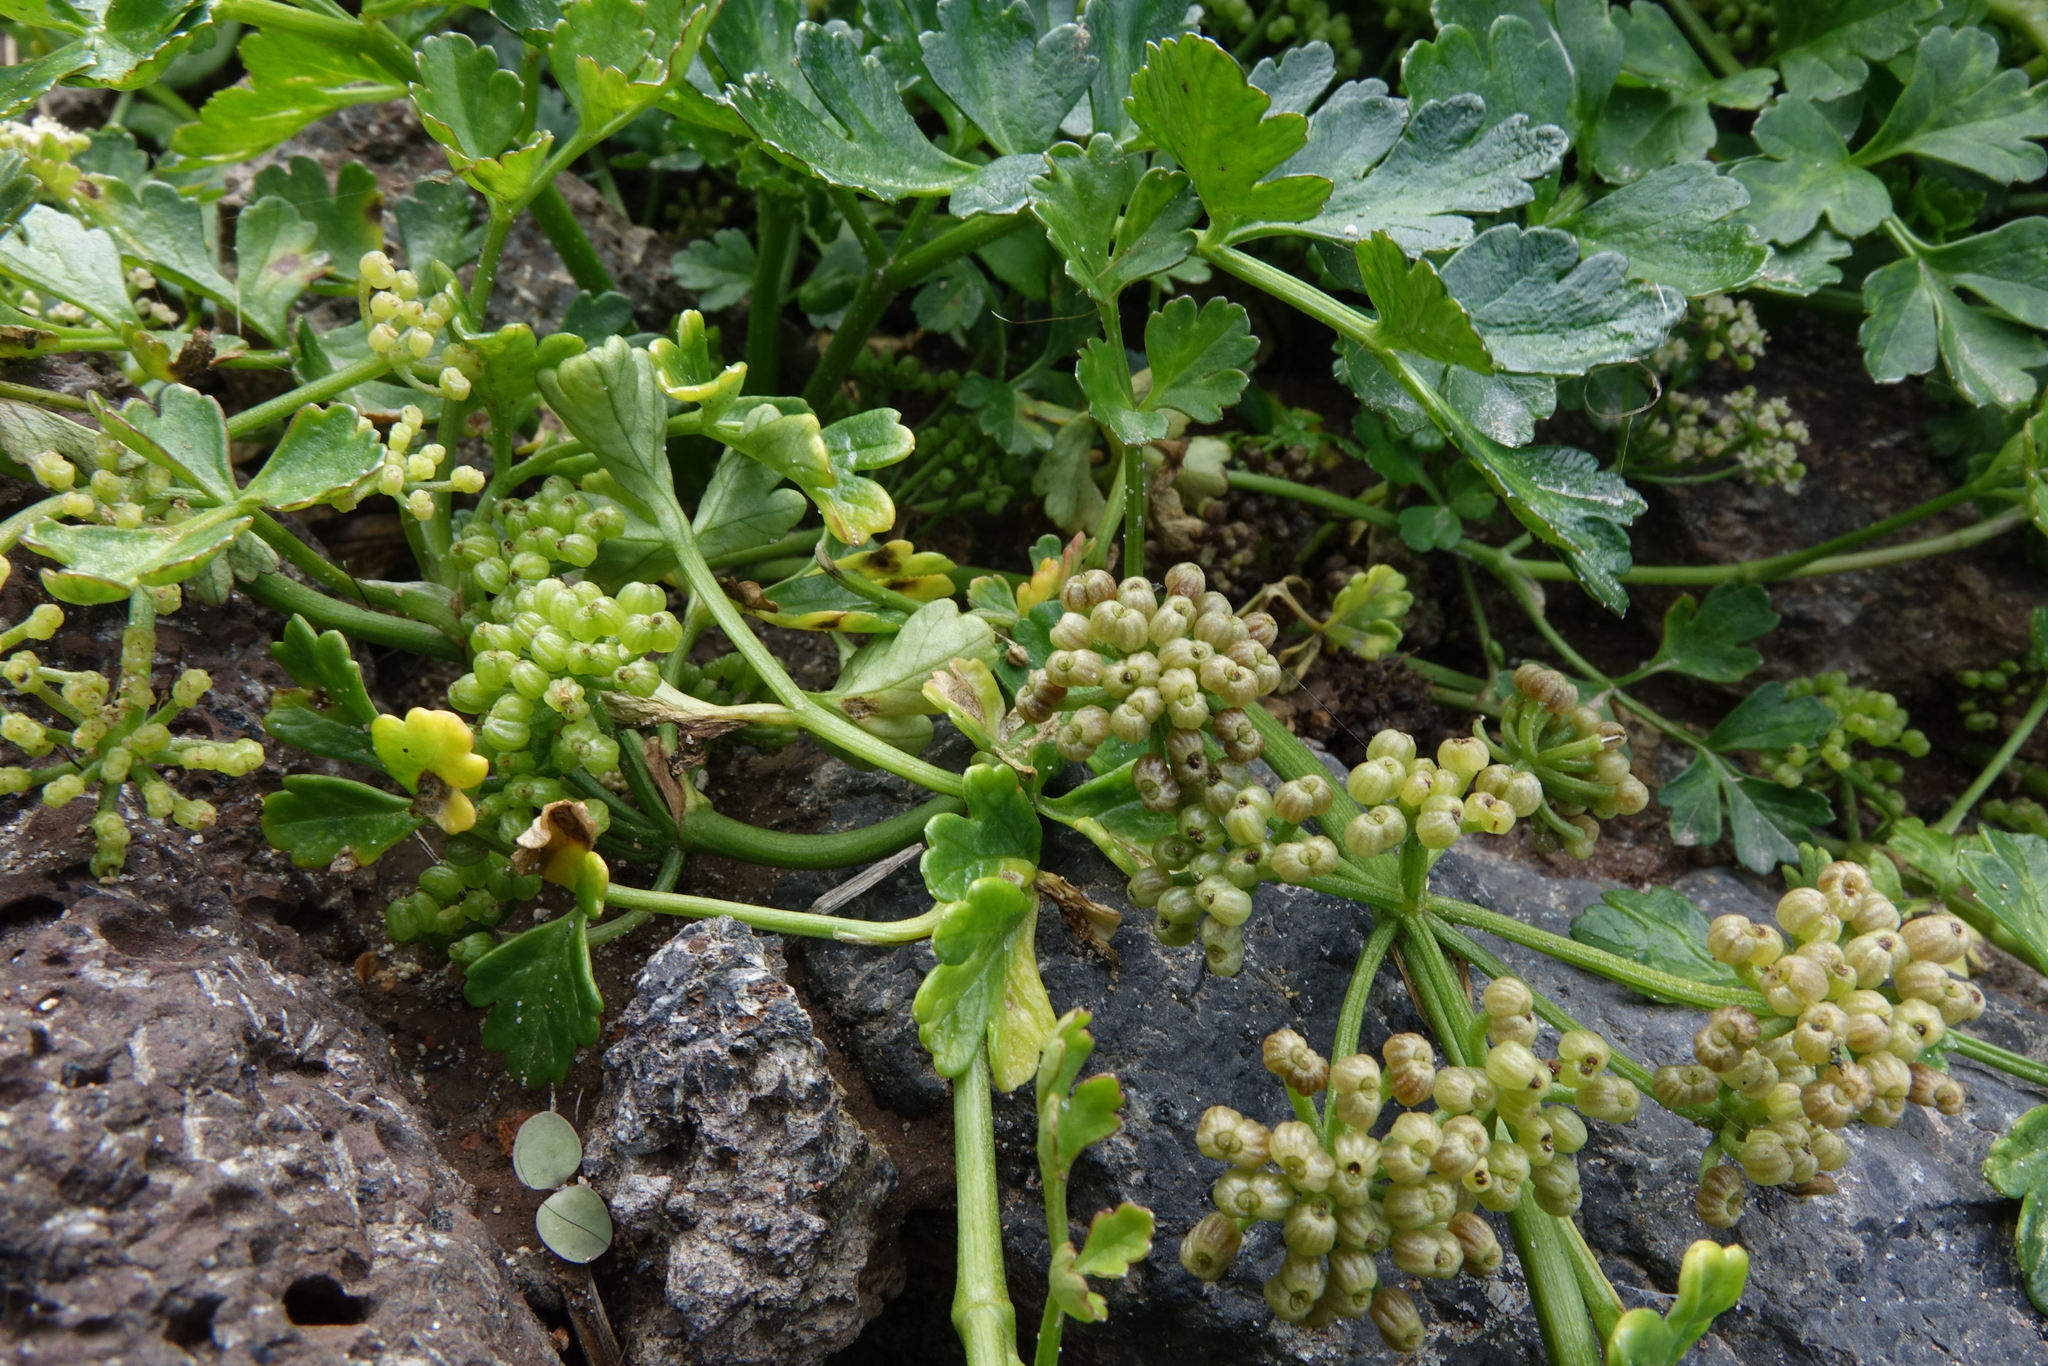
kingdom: Plantae
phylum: Tracheophyta
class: Magnoliopsida
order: Apiales
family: Apiaceae
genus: Apium
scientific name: Apium prostratum
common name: Prostrate marshwort
